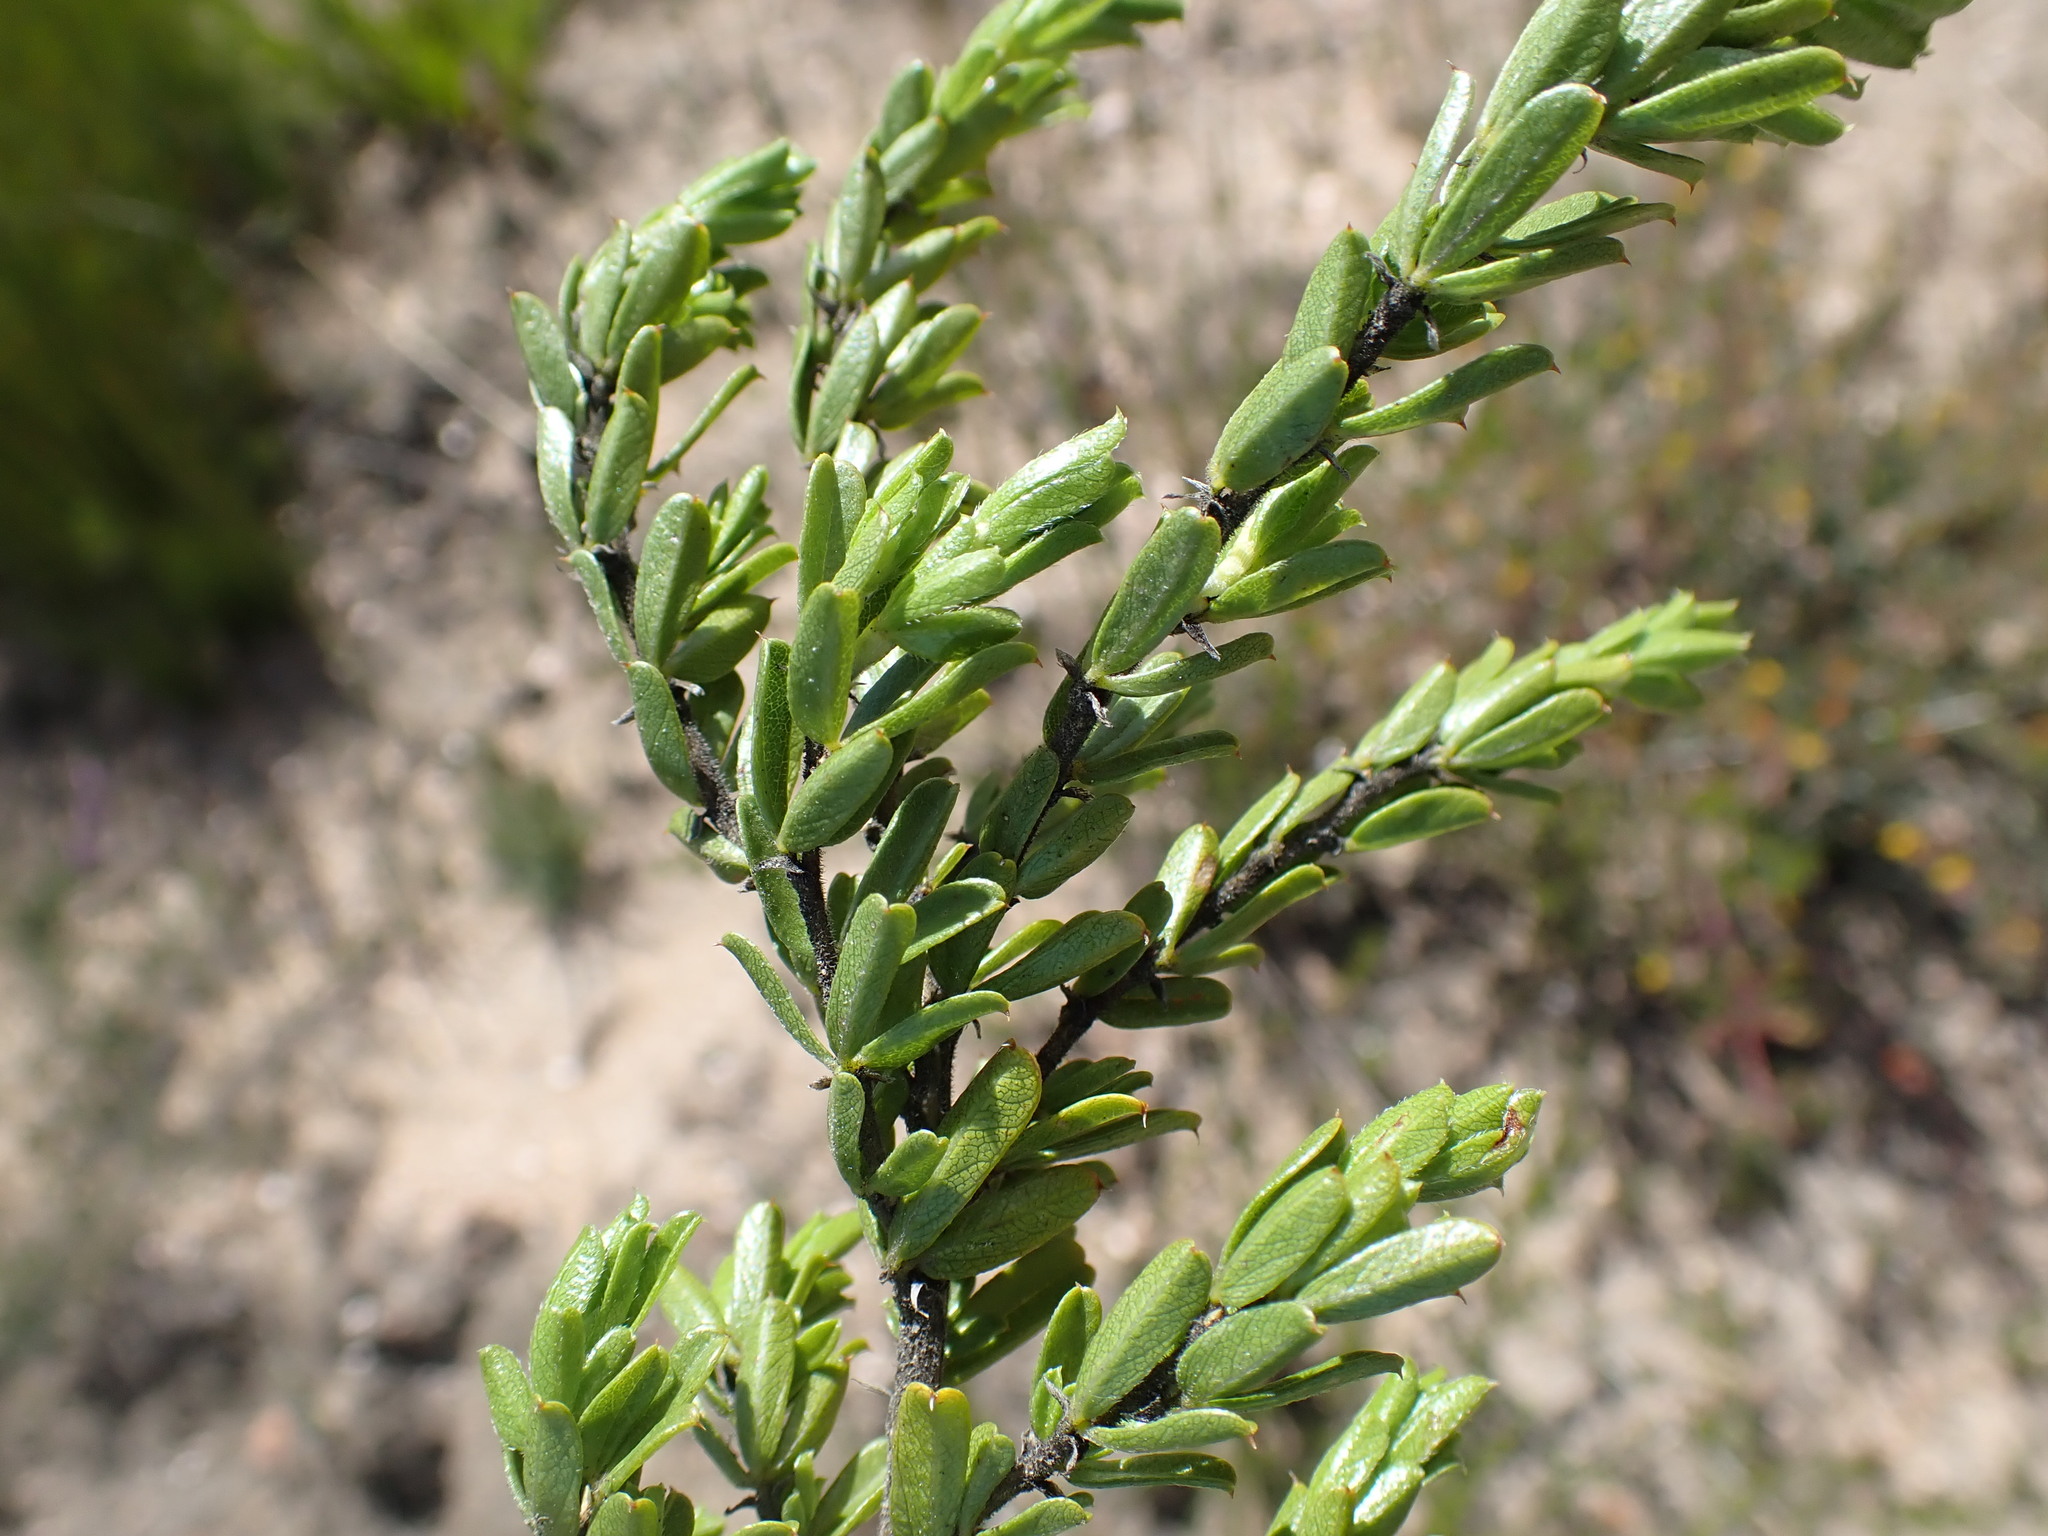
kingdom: Plantae
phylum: Tracheophyta
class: Magnoliopsida
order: Fabales
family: Fabaceae
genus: Psoralea
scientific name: Psoralea heterosepala
